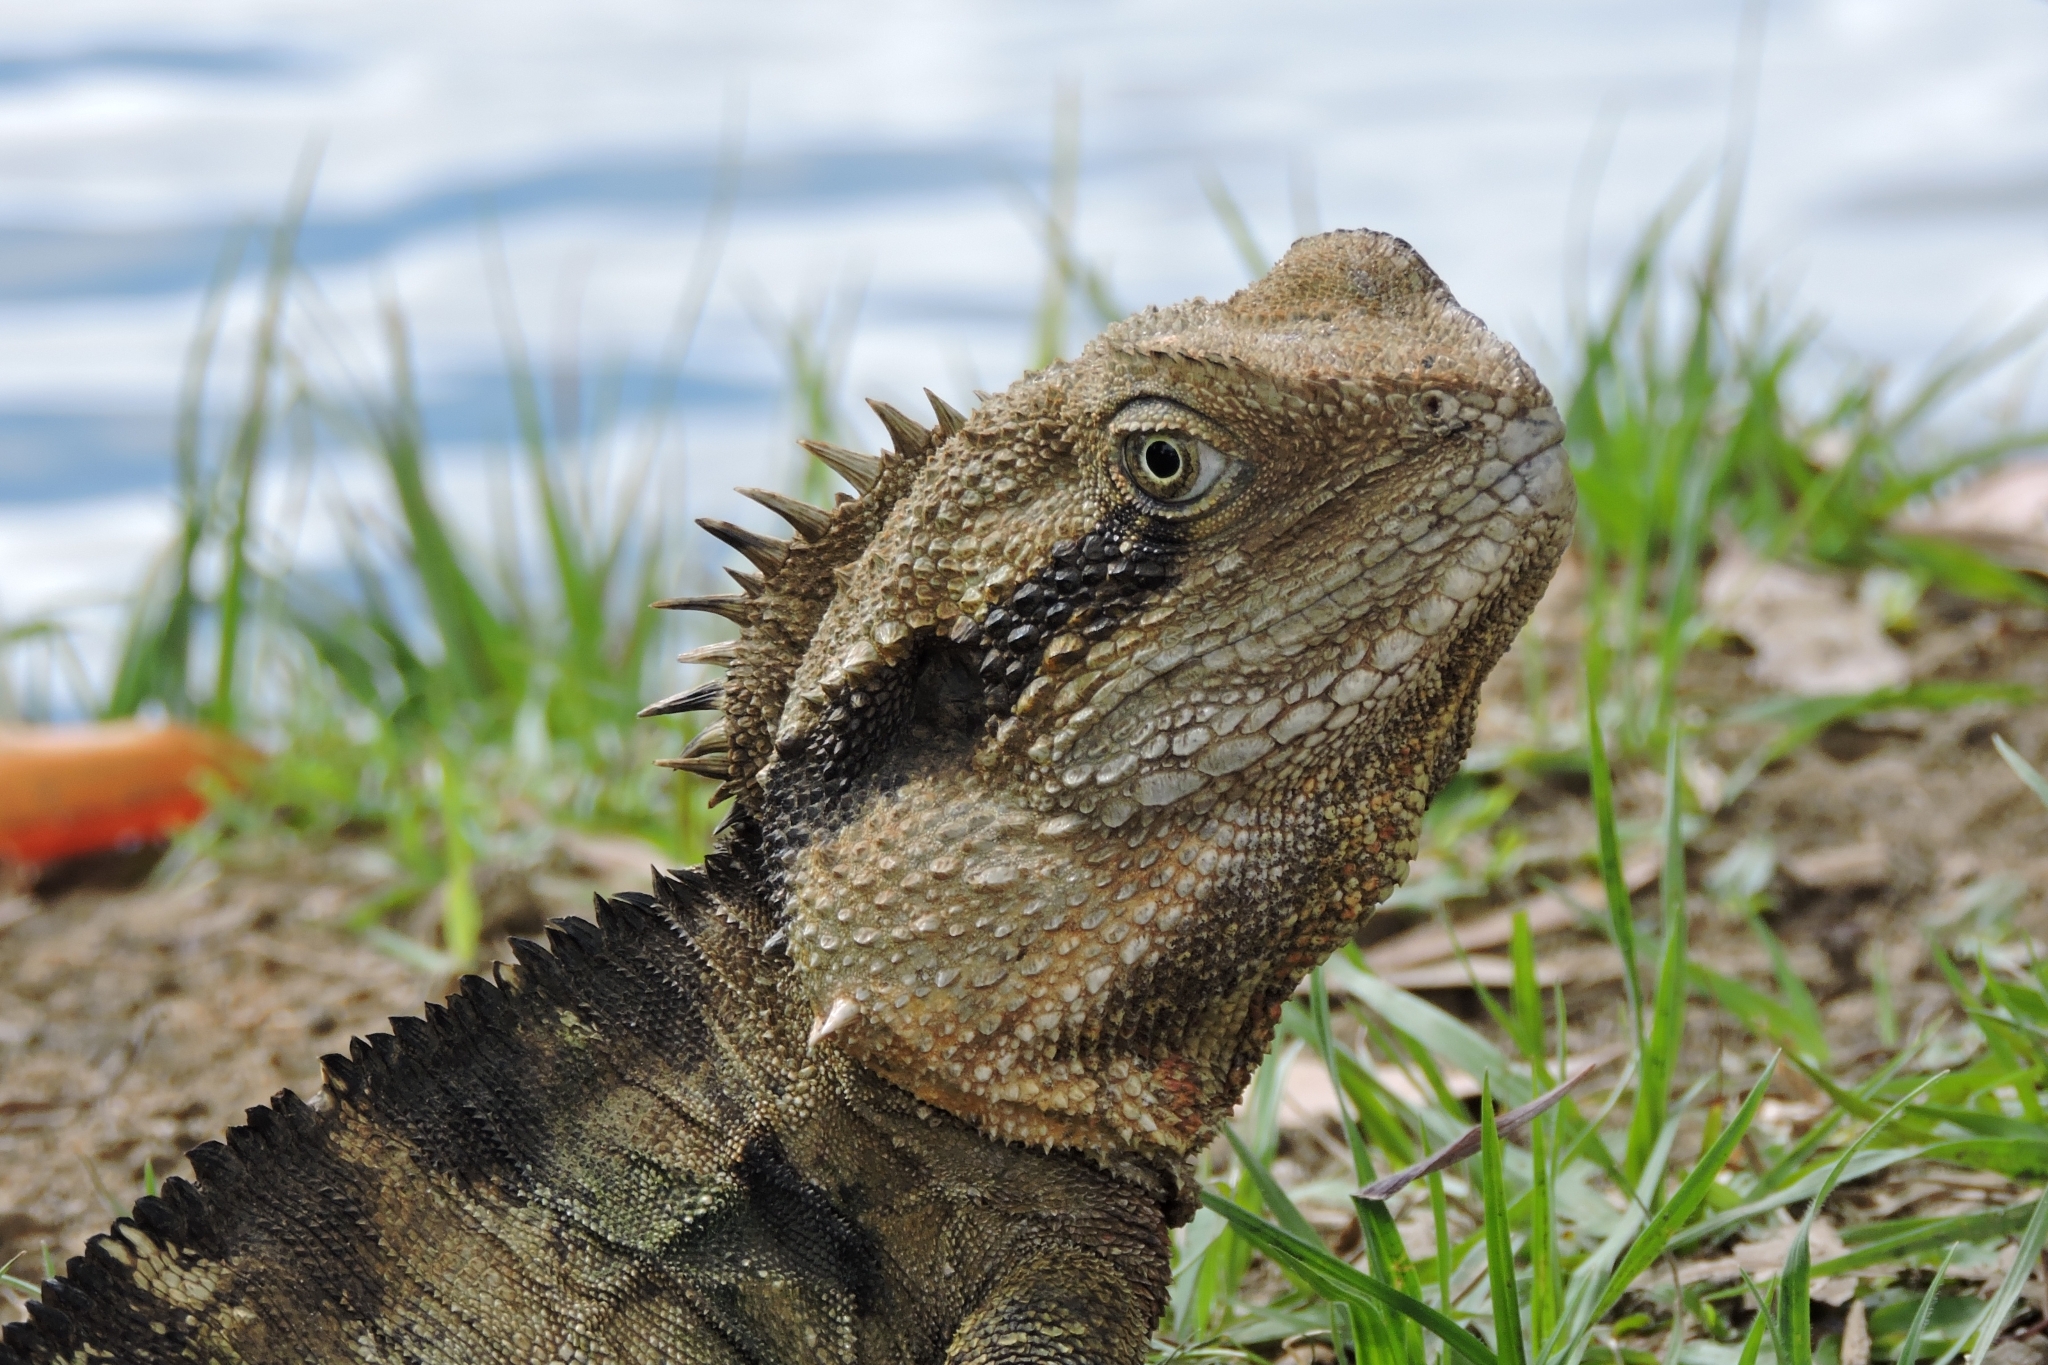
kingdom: Animalia
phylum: Chordata
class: Squamata
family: Agamidae
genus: Intellagama
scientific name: Intellagama lesueurii
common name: Eastern water dragon
